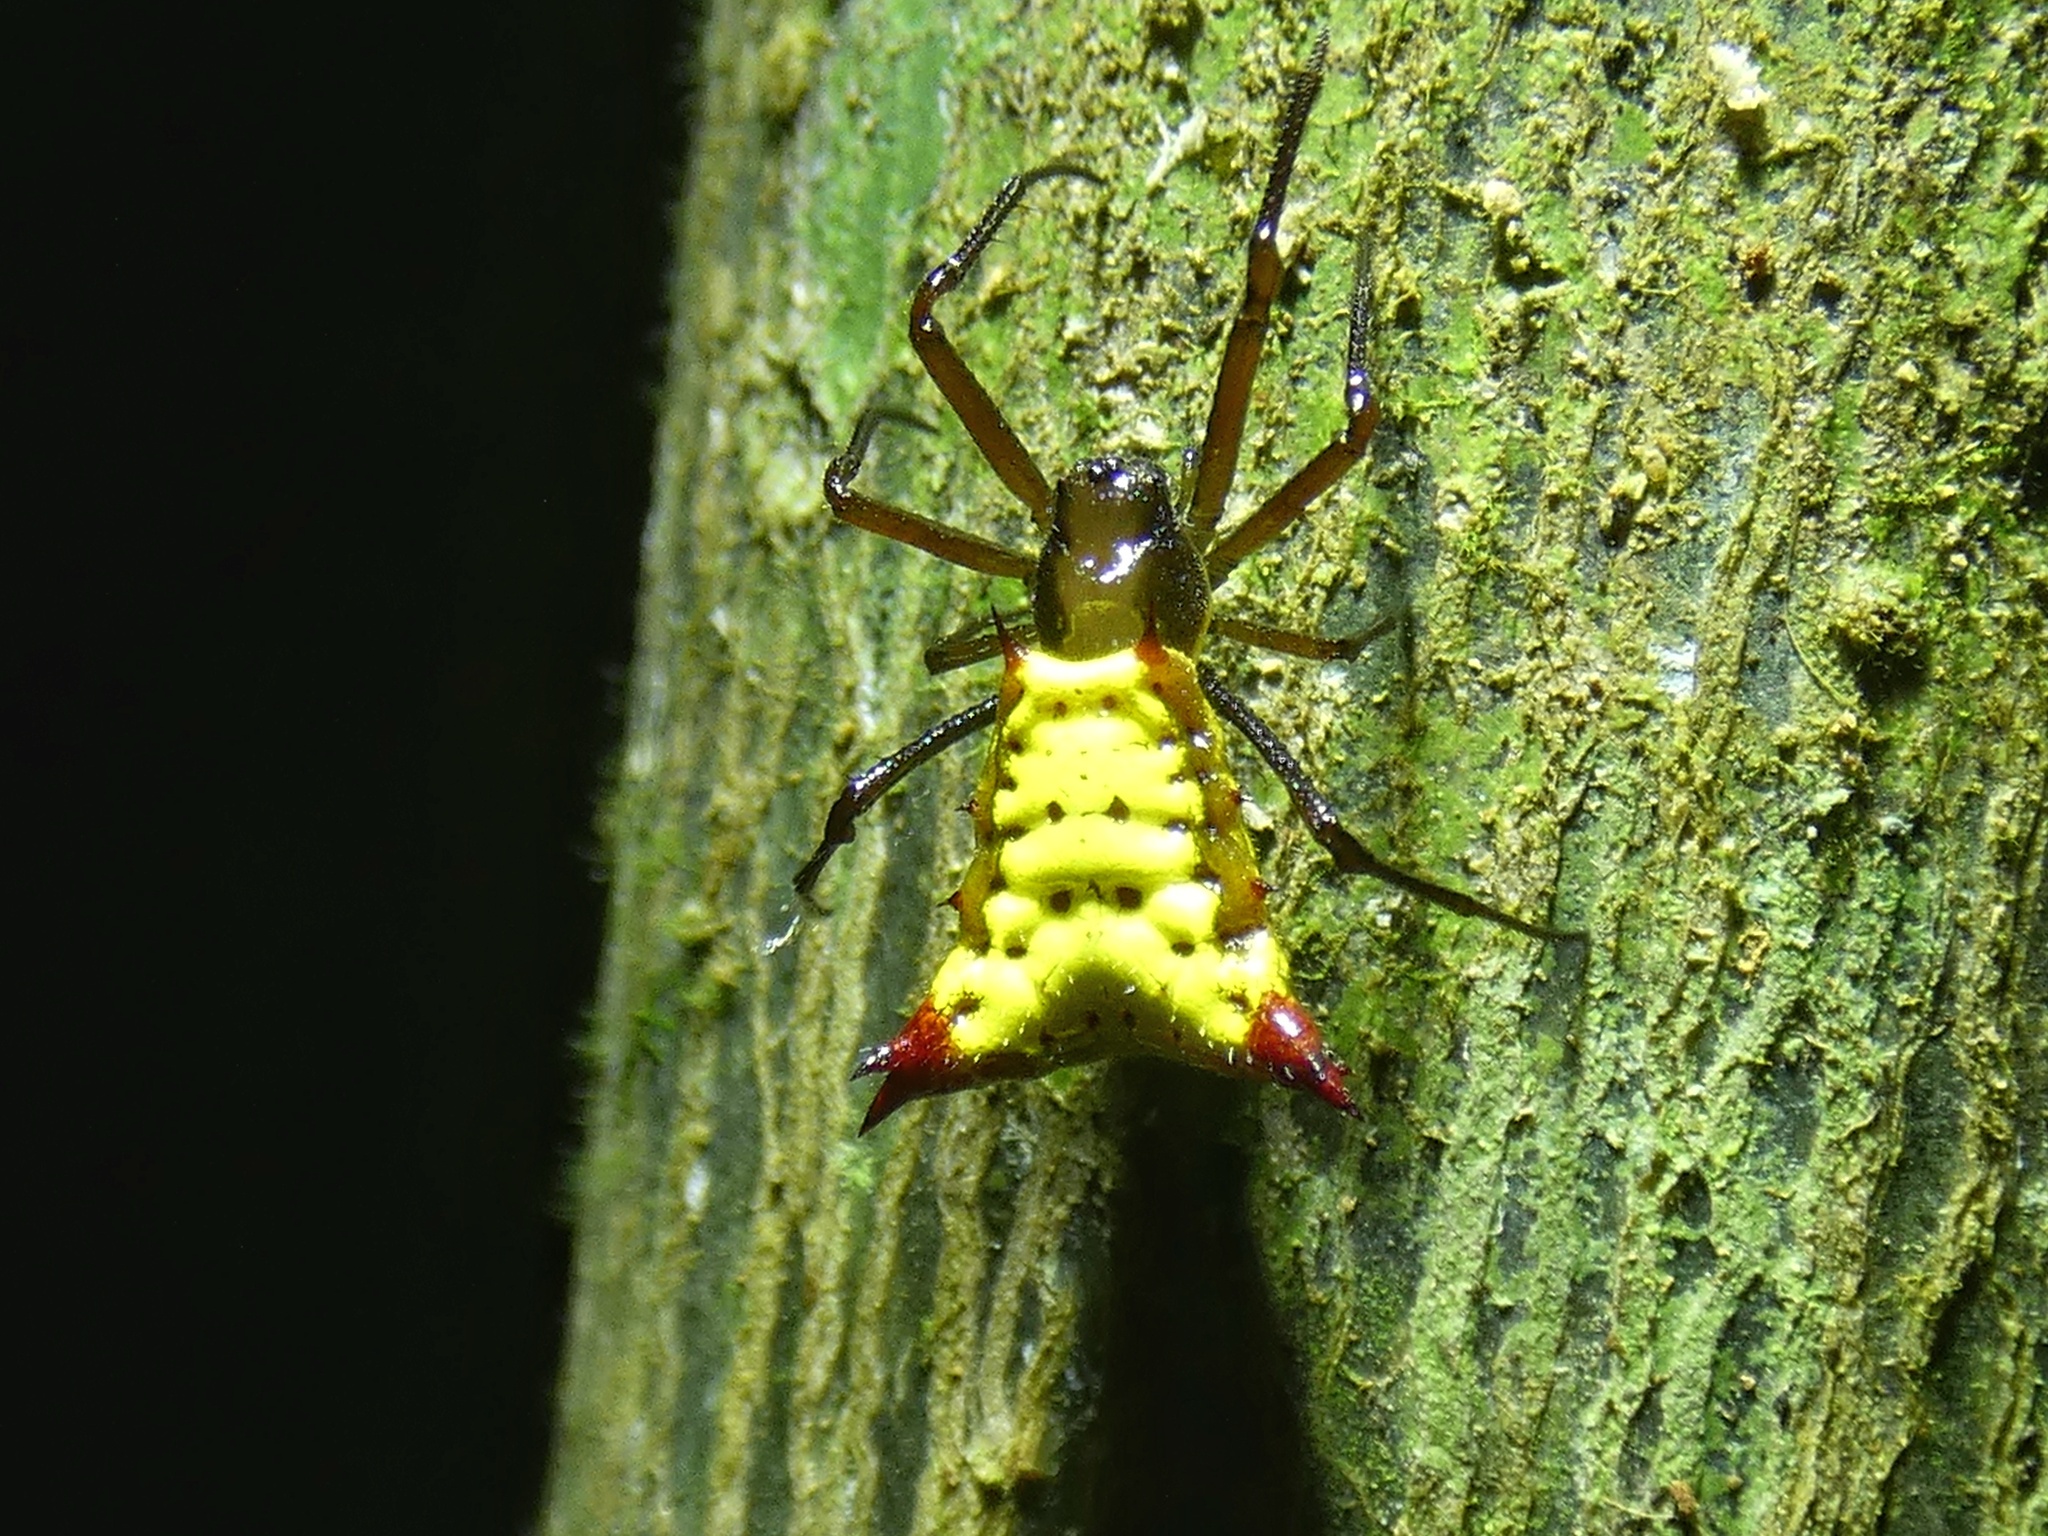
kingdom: Animalia
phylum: Arthropoda
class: Arachnida
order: Araneae
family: Araneidae
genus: Micrathena
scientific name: Micrathena duodecimspinosa
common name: Orb weavers
